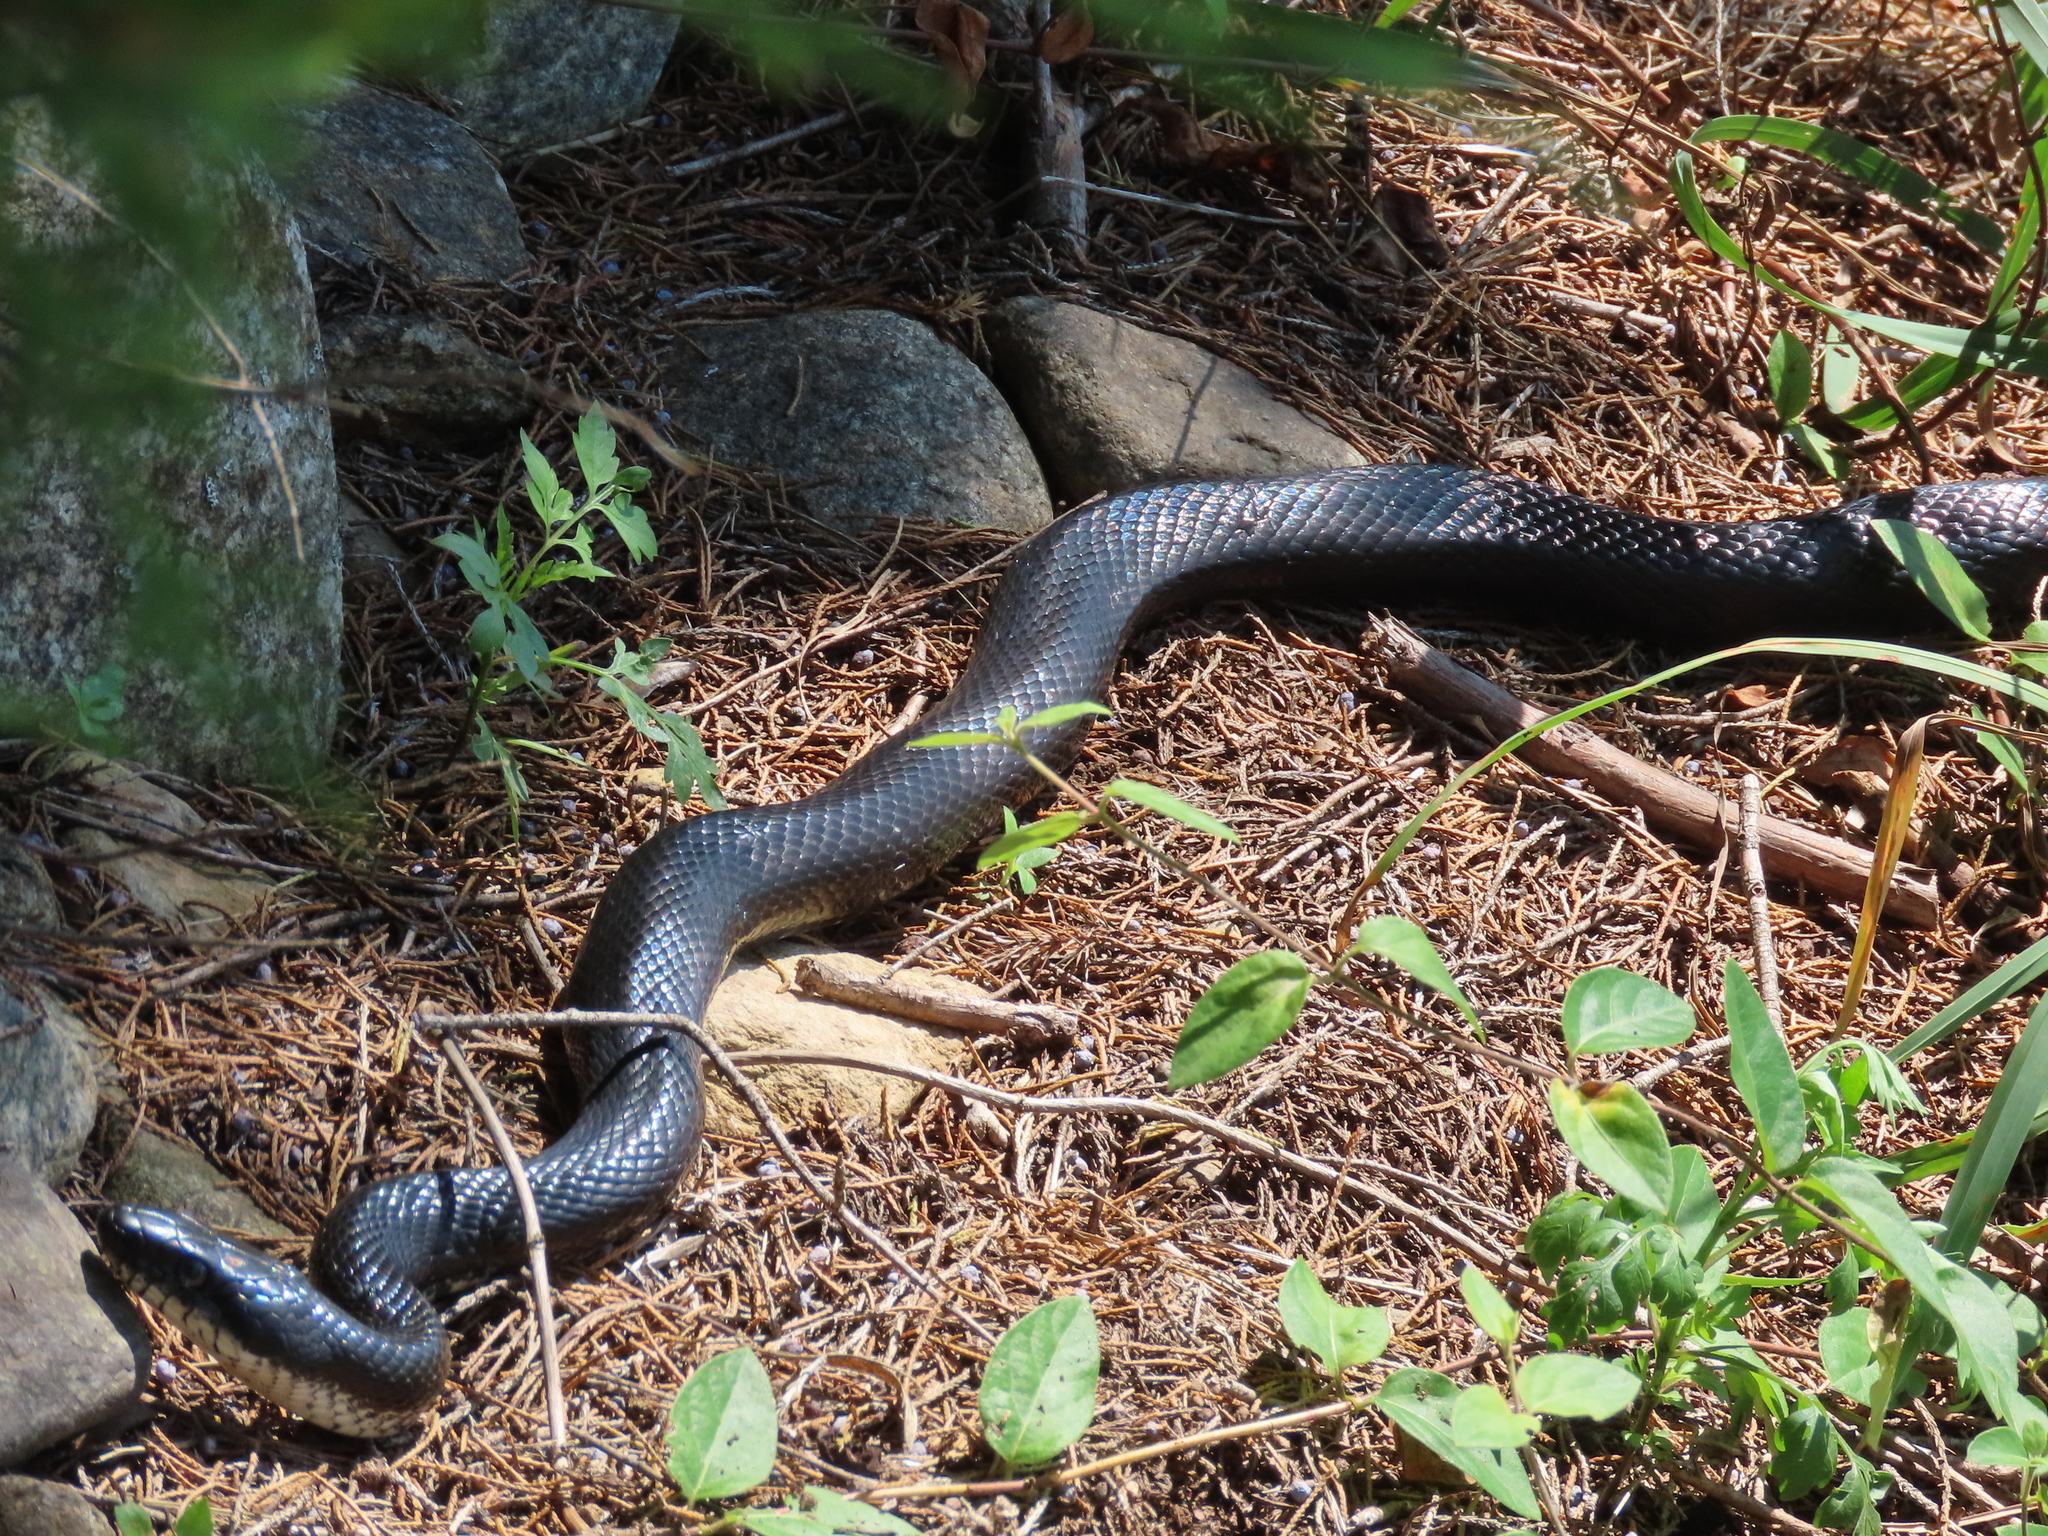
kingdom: Animalia
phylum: Chordata
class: Squamata
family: Colubridae
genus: Pantherophis
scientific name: Pantherophis alleghaniensis
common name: Eastern rat snake
